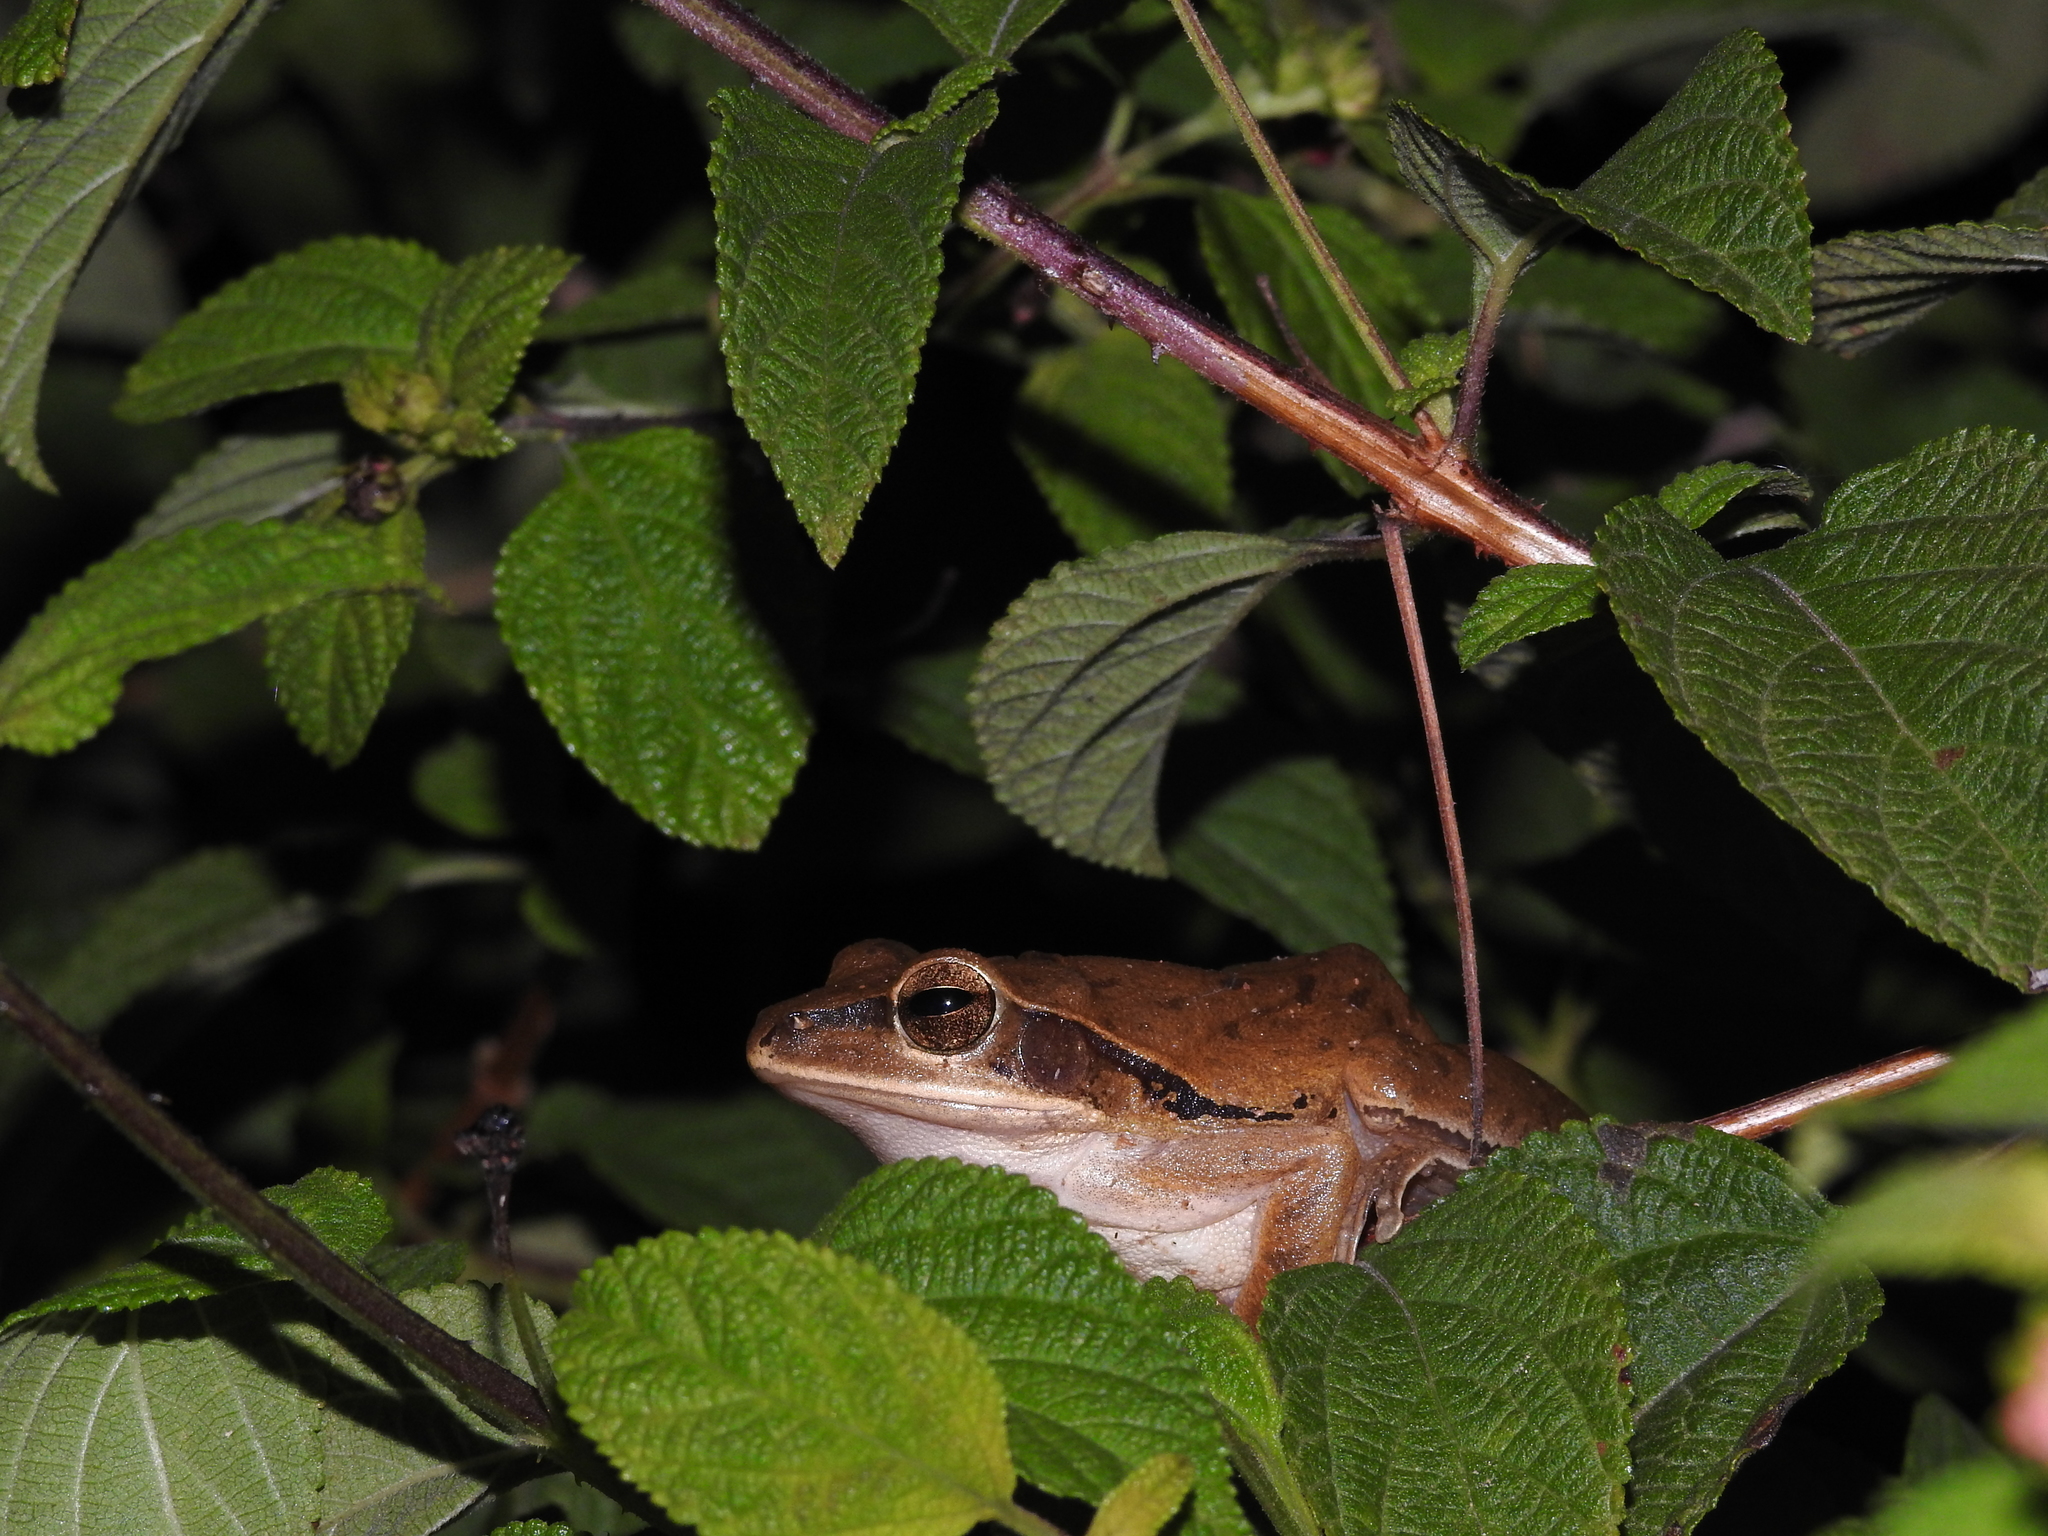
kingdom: Animalia
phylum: Chordata
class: Amphibia
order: Anura
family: Rhacophoridae
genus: Polypedates
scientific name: Polypedates maculatus
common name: Himalayan tree frog
